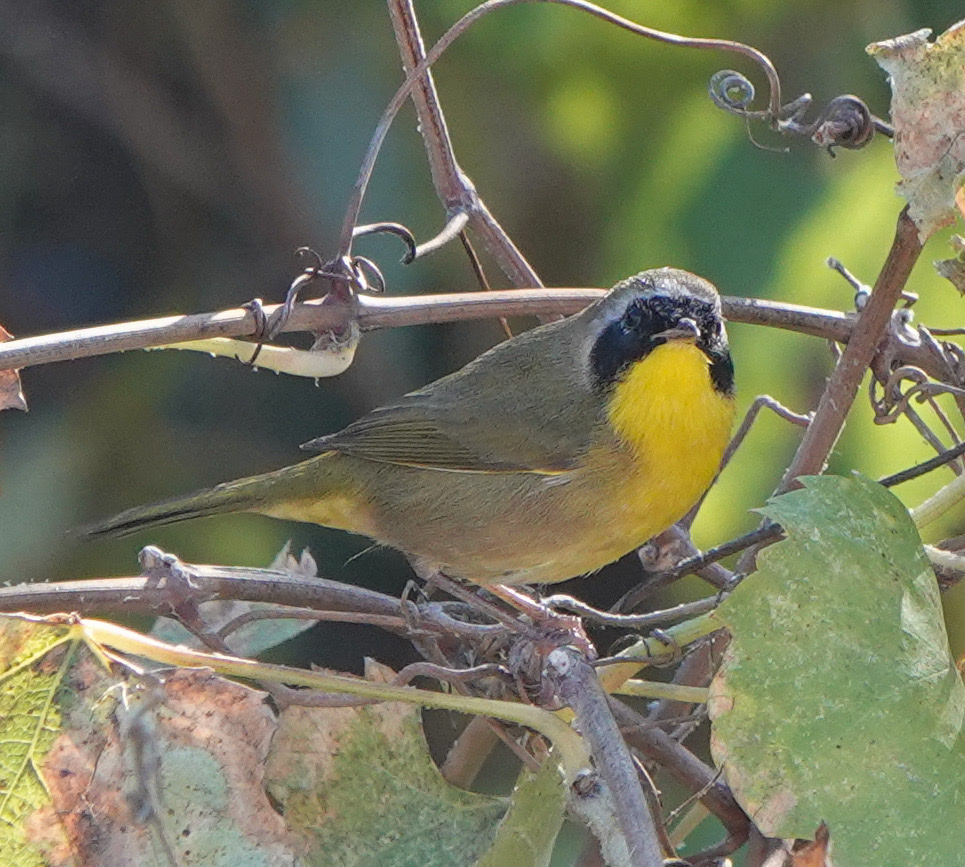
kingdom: Animalia
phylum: Chordata
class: Aves
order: Passeriformes
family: Parulidae
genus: Geothlypis
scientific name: Geothlypis trichas
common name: Common yellowthroat
